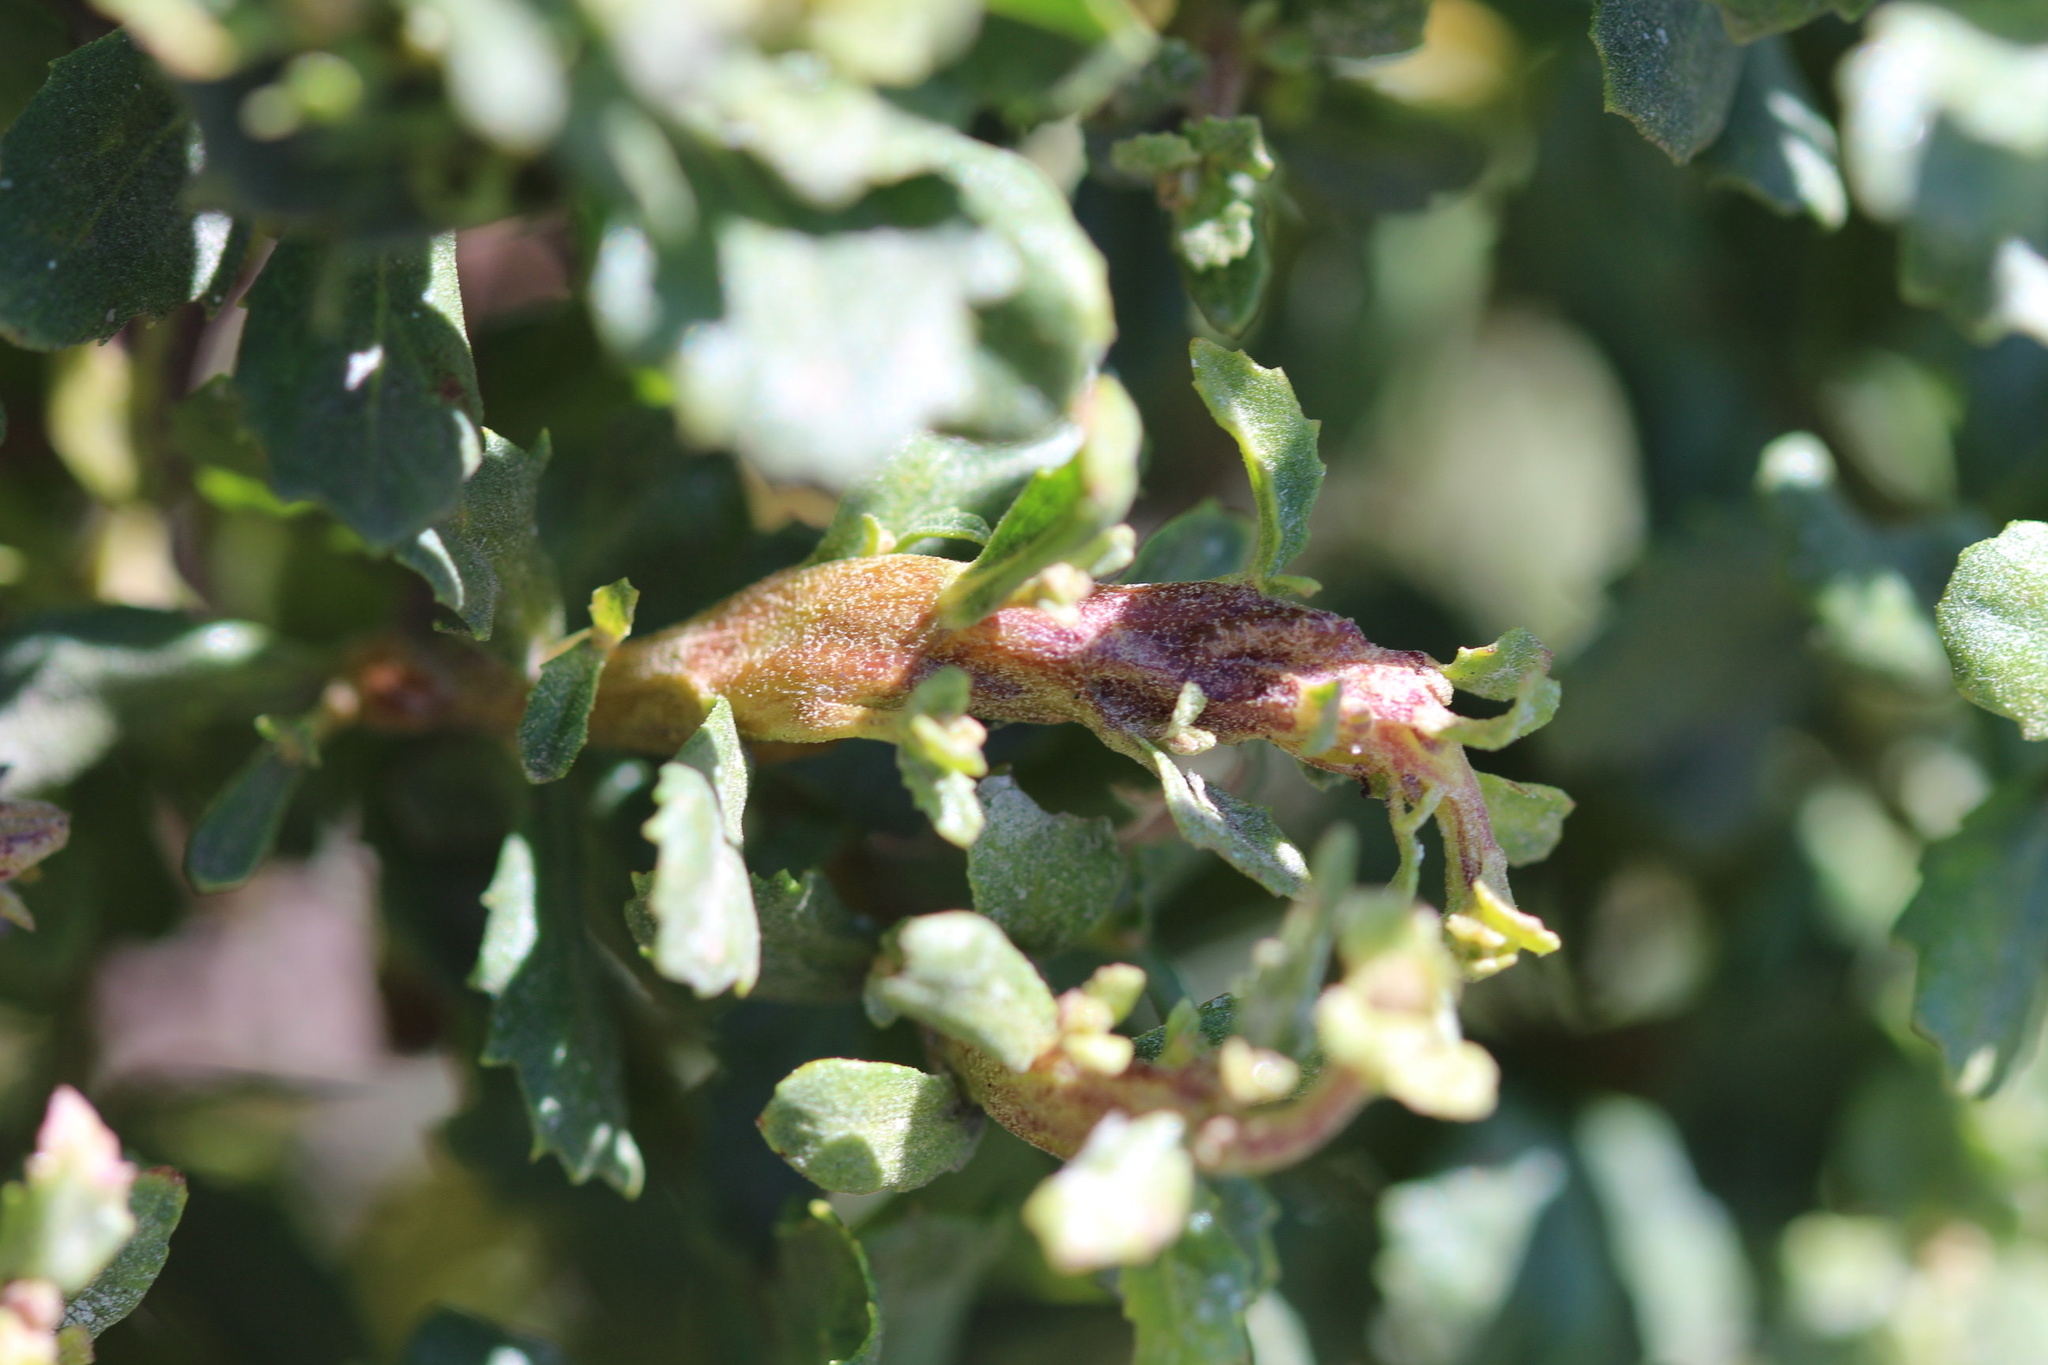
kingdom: Animalia
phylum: Arthropoda
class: Insecta
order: Diptera
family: Cecidomyiidae
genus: Rhopalomyia
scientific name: Rhopalomyia baccharis
